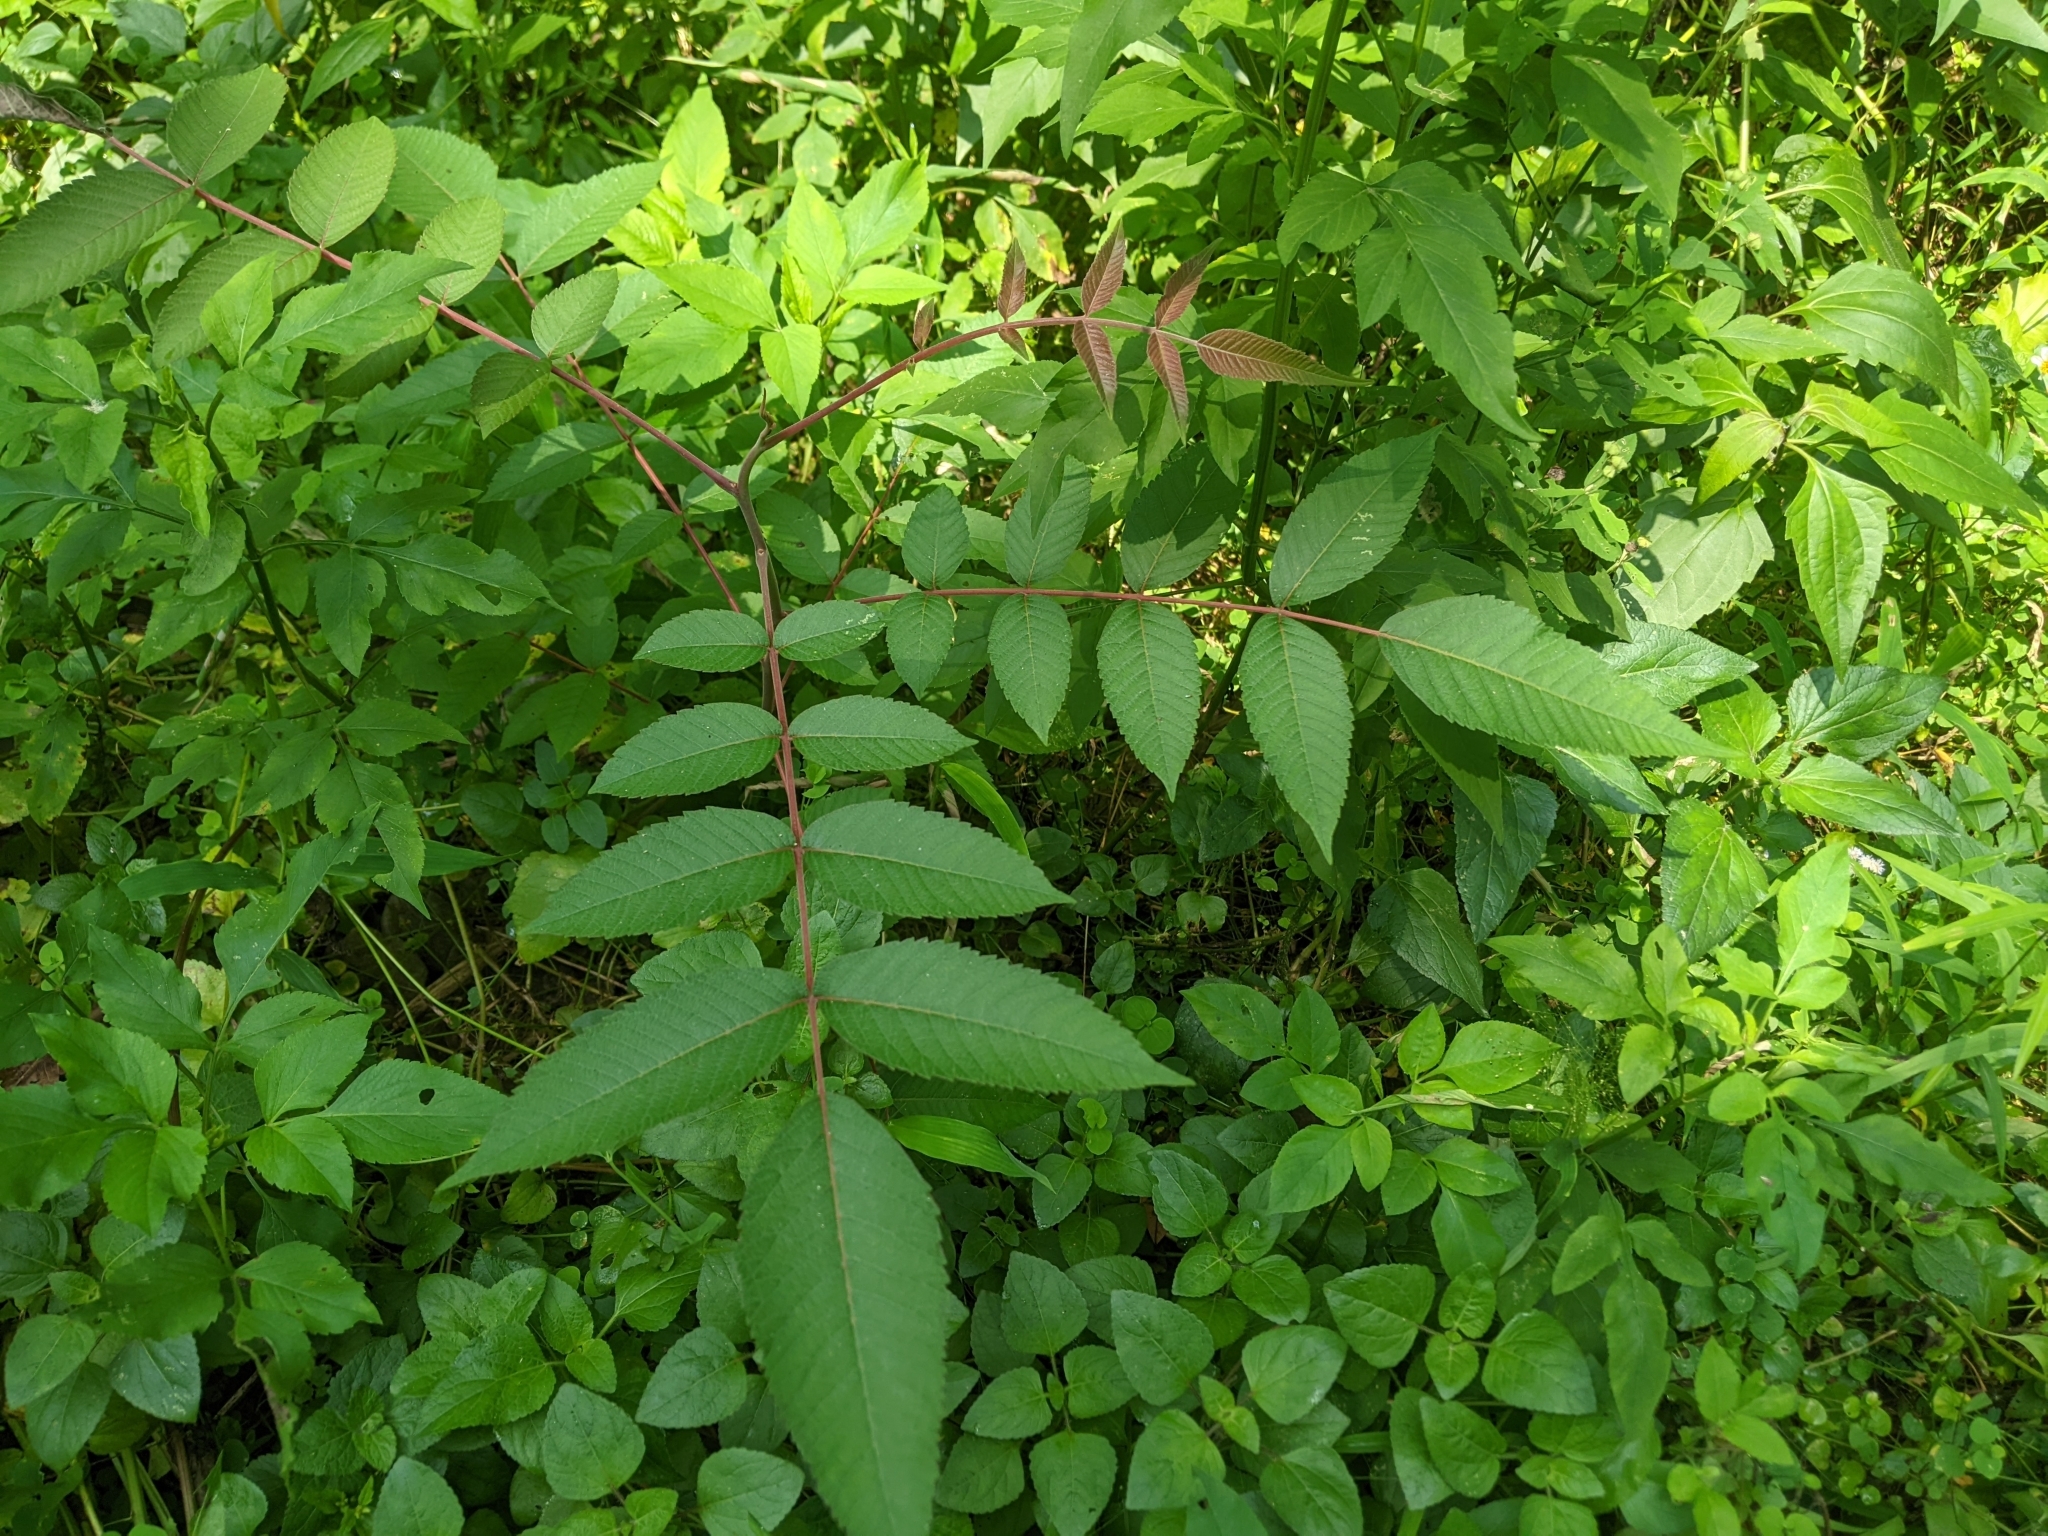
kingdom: Plantae
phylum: Tracheophyta
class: Magnoliopsida
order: Sapindales
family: Anacardiaceae
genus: Rhus
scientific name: Rhus chinensis
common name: Chinese gall
